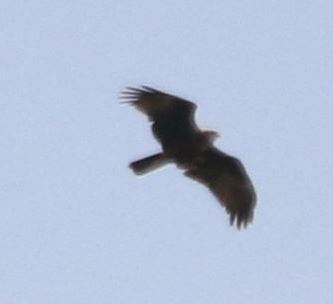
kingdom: Animalia
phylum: Chordata
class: Aves
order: Accipitriformes
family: Accipitridae
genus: Circus
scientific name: Circus aeruginosus
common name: Western marsh harrier
